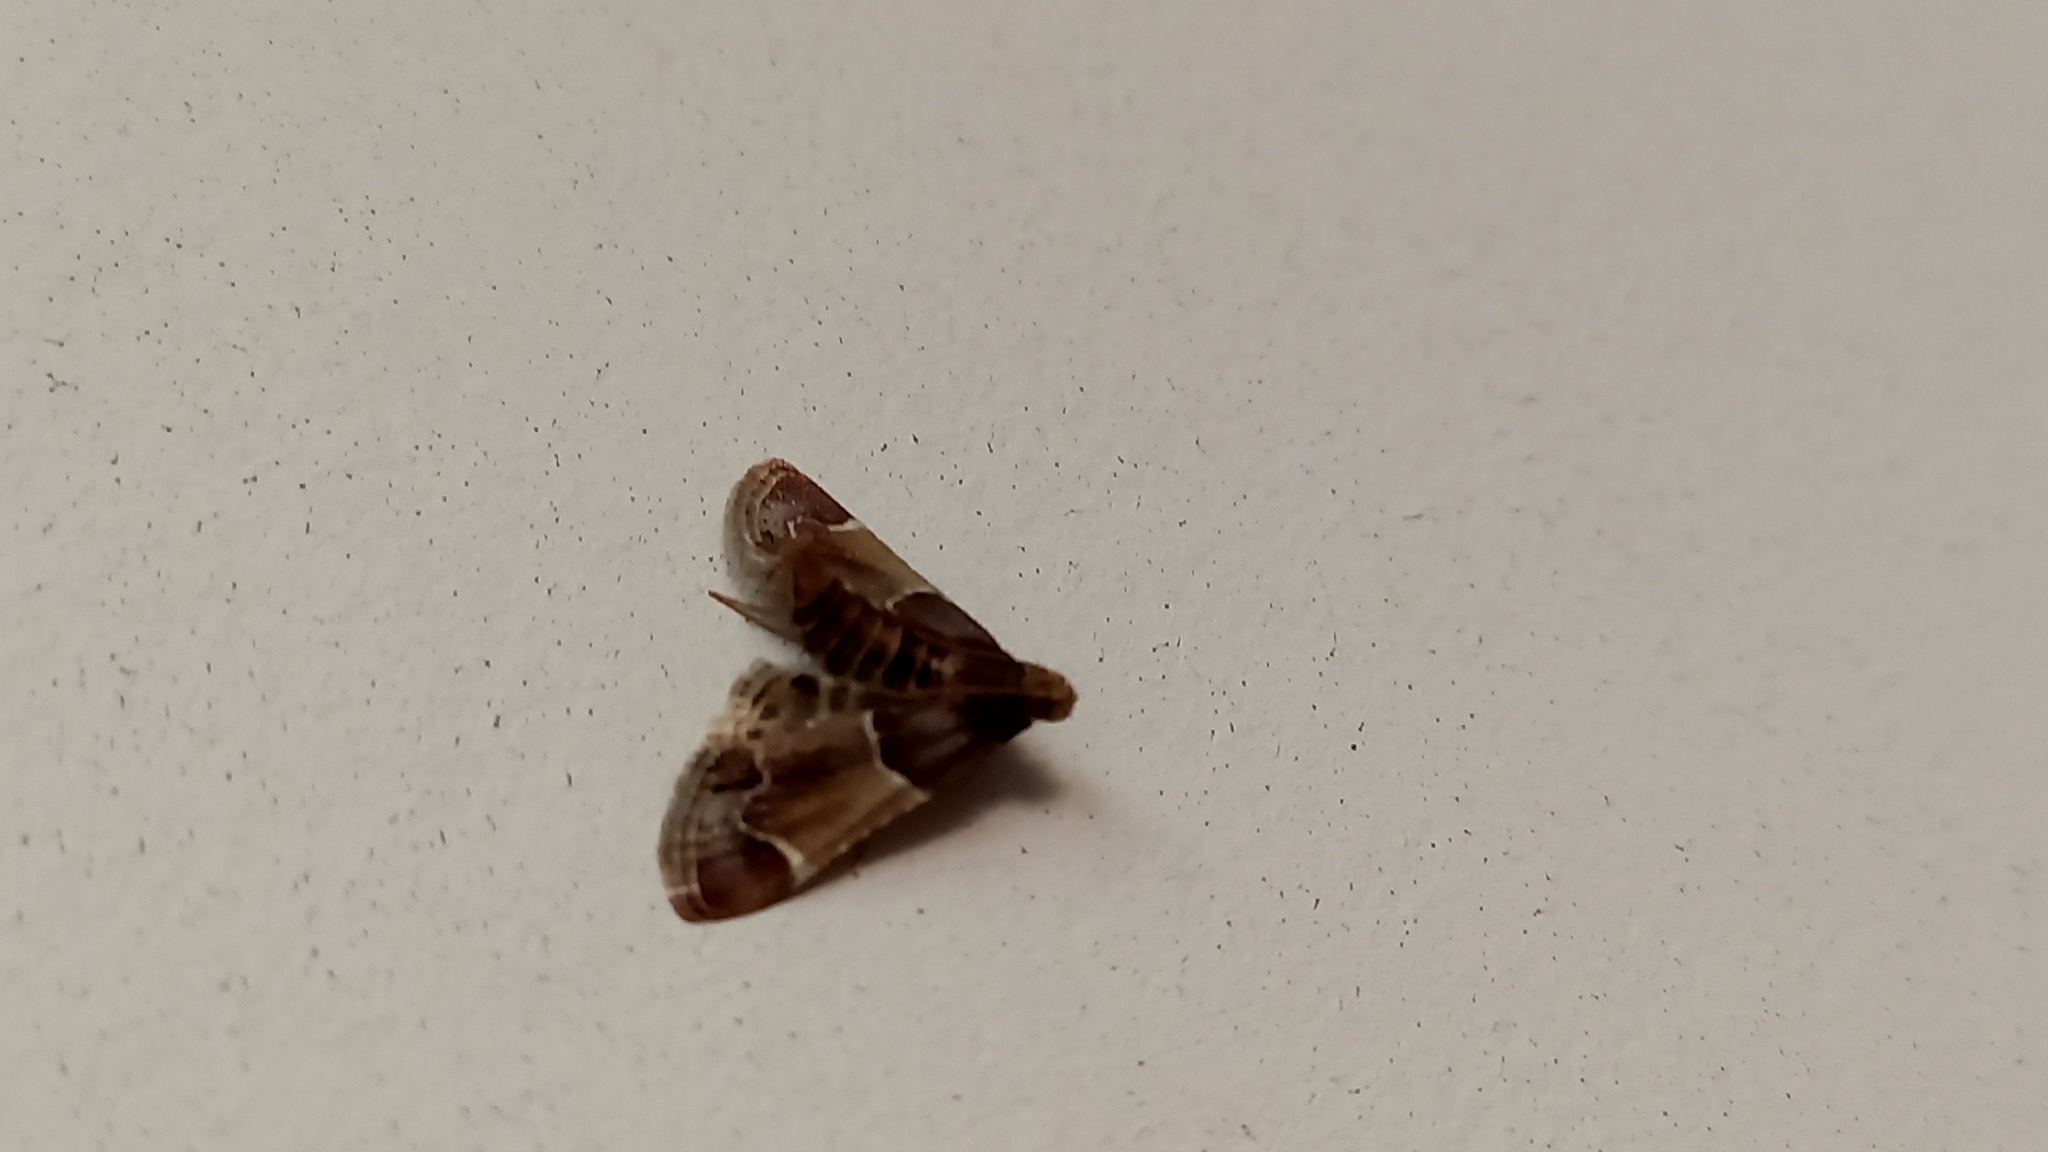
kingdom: Animalia
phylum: Arthropoda
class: Insecta
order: Lepidoptera
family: Pyralidae
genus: Pyralis
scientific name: Pyralis farinalis
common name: Meal moth
